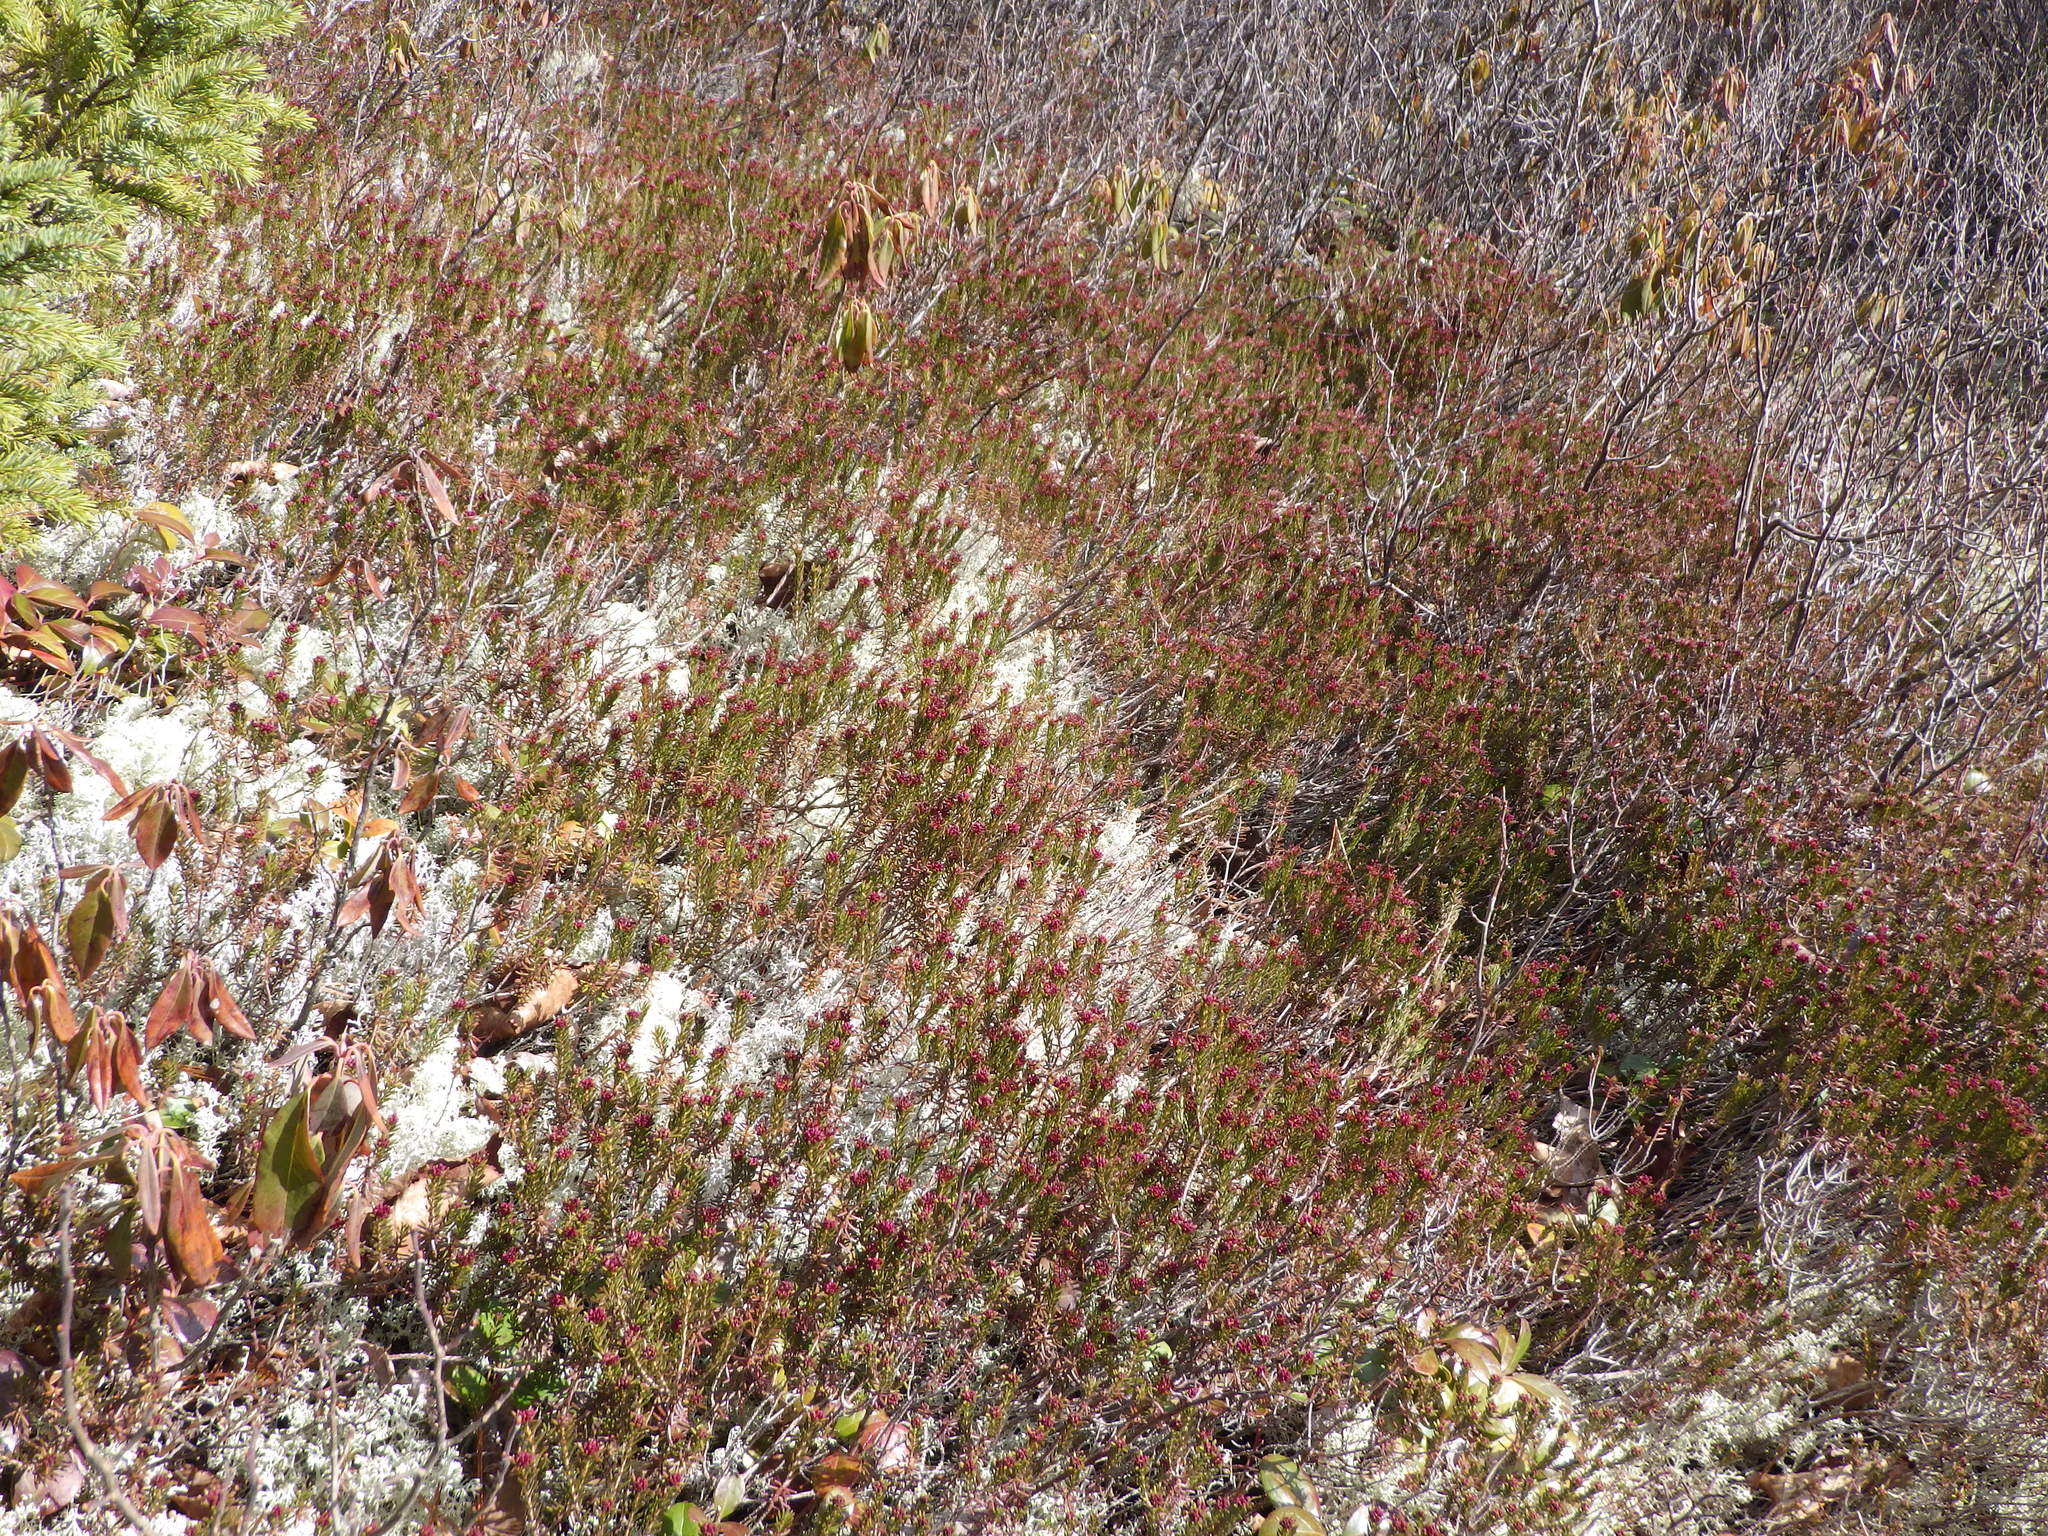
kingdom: Plantae
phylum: Tracheophyta
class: Magnoliopsida
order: Ericales
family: Ericaceae
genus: Corema
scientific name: Corema conradii
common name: Broom-crowberry
